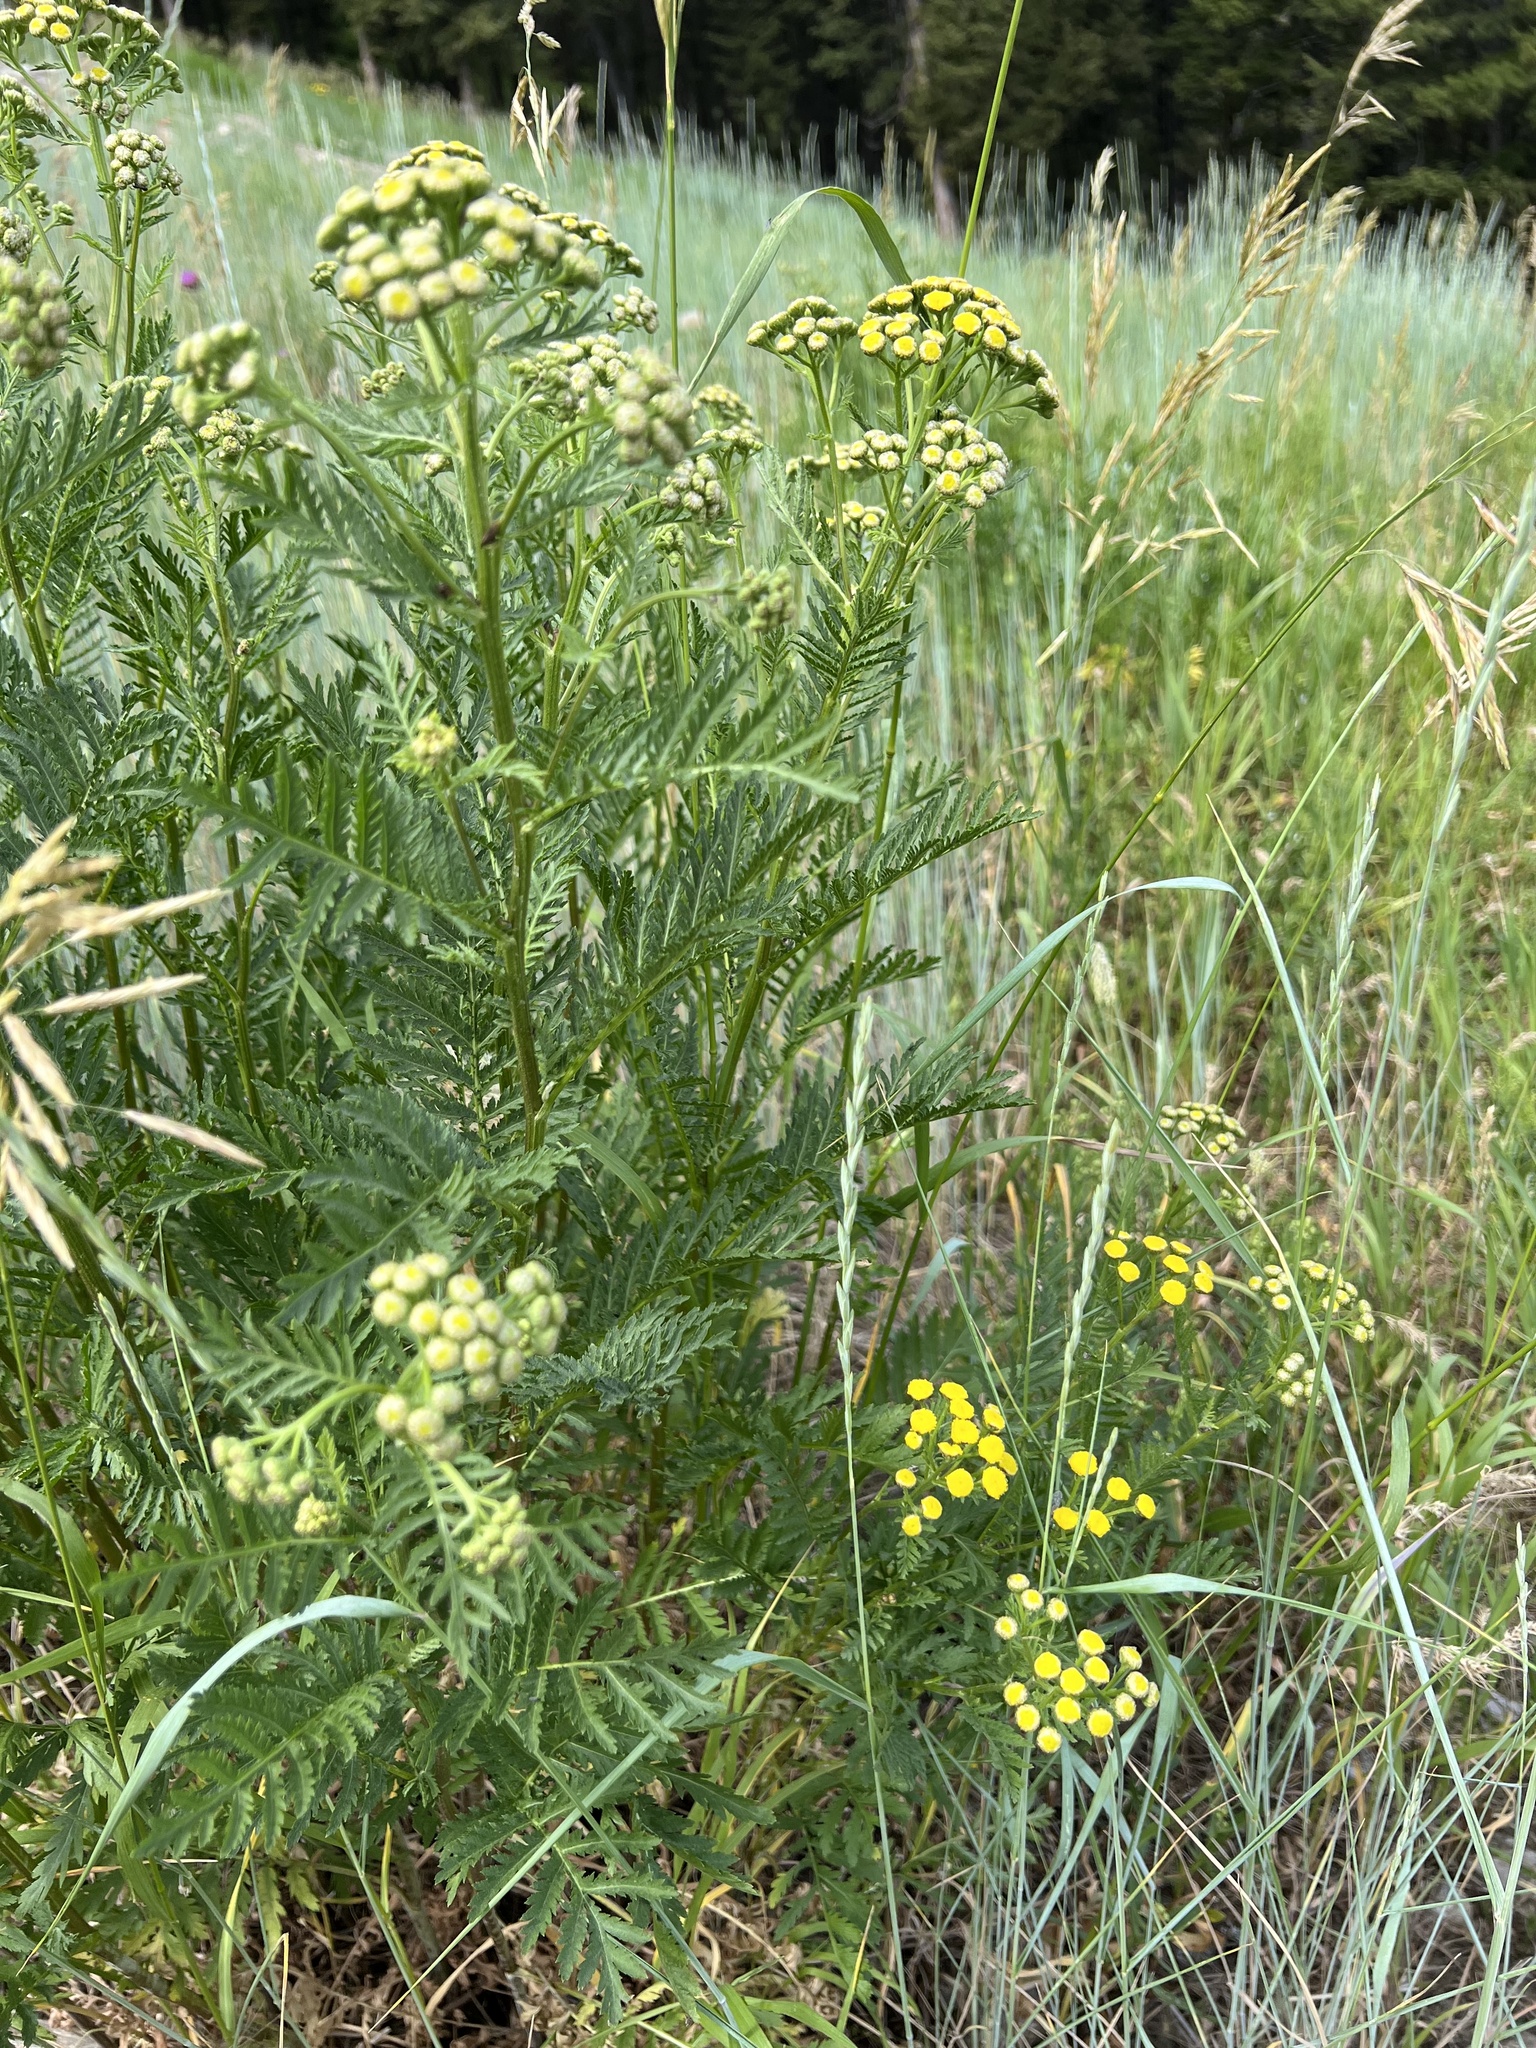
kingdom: Plantae
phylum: Tracheophyta
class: Magnoliopsida
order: Asterales
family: Asteraceae
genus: Tanacetum
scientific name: Tanacetum vulgare
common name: Common tansy
